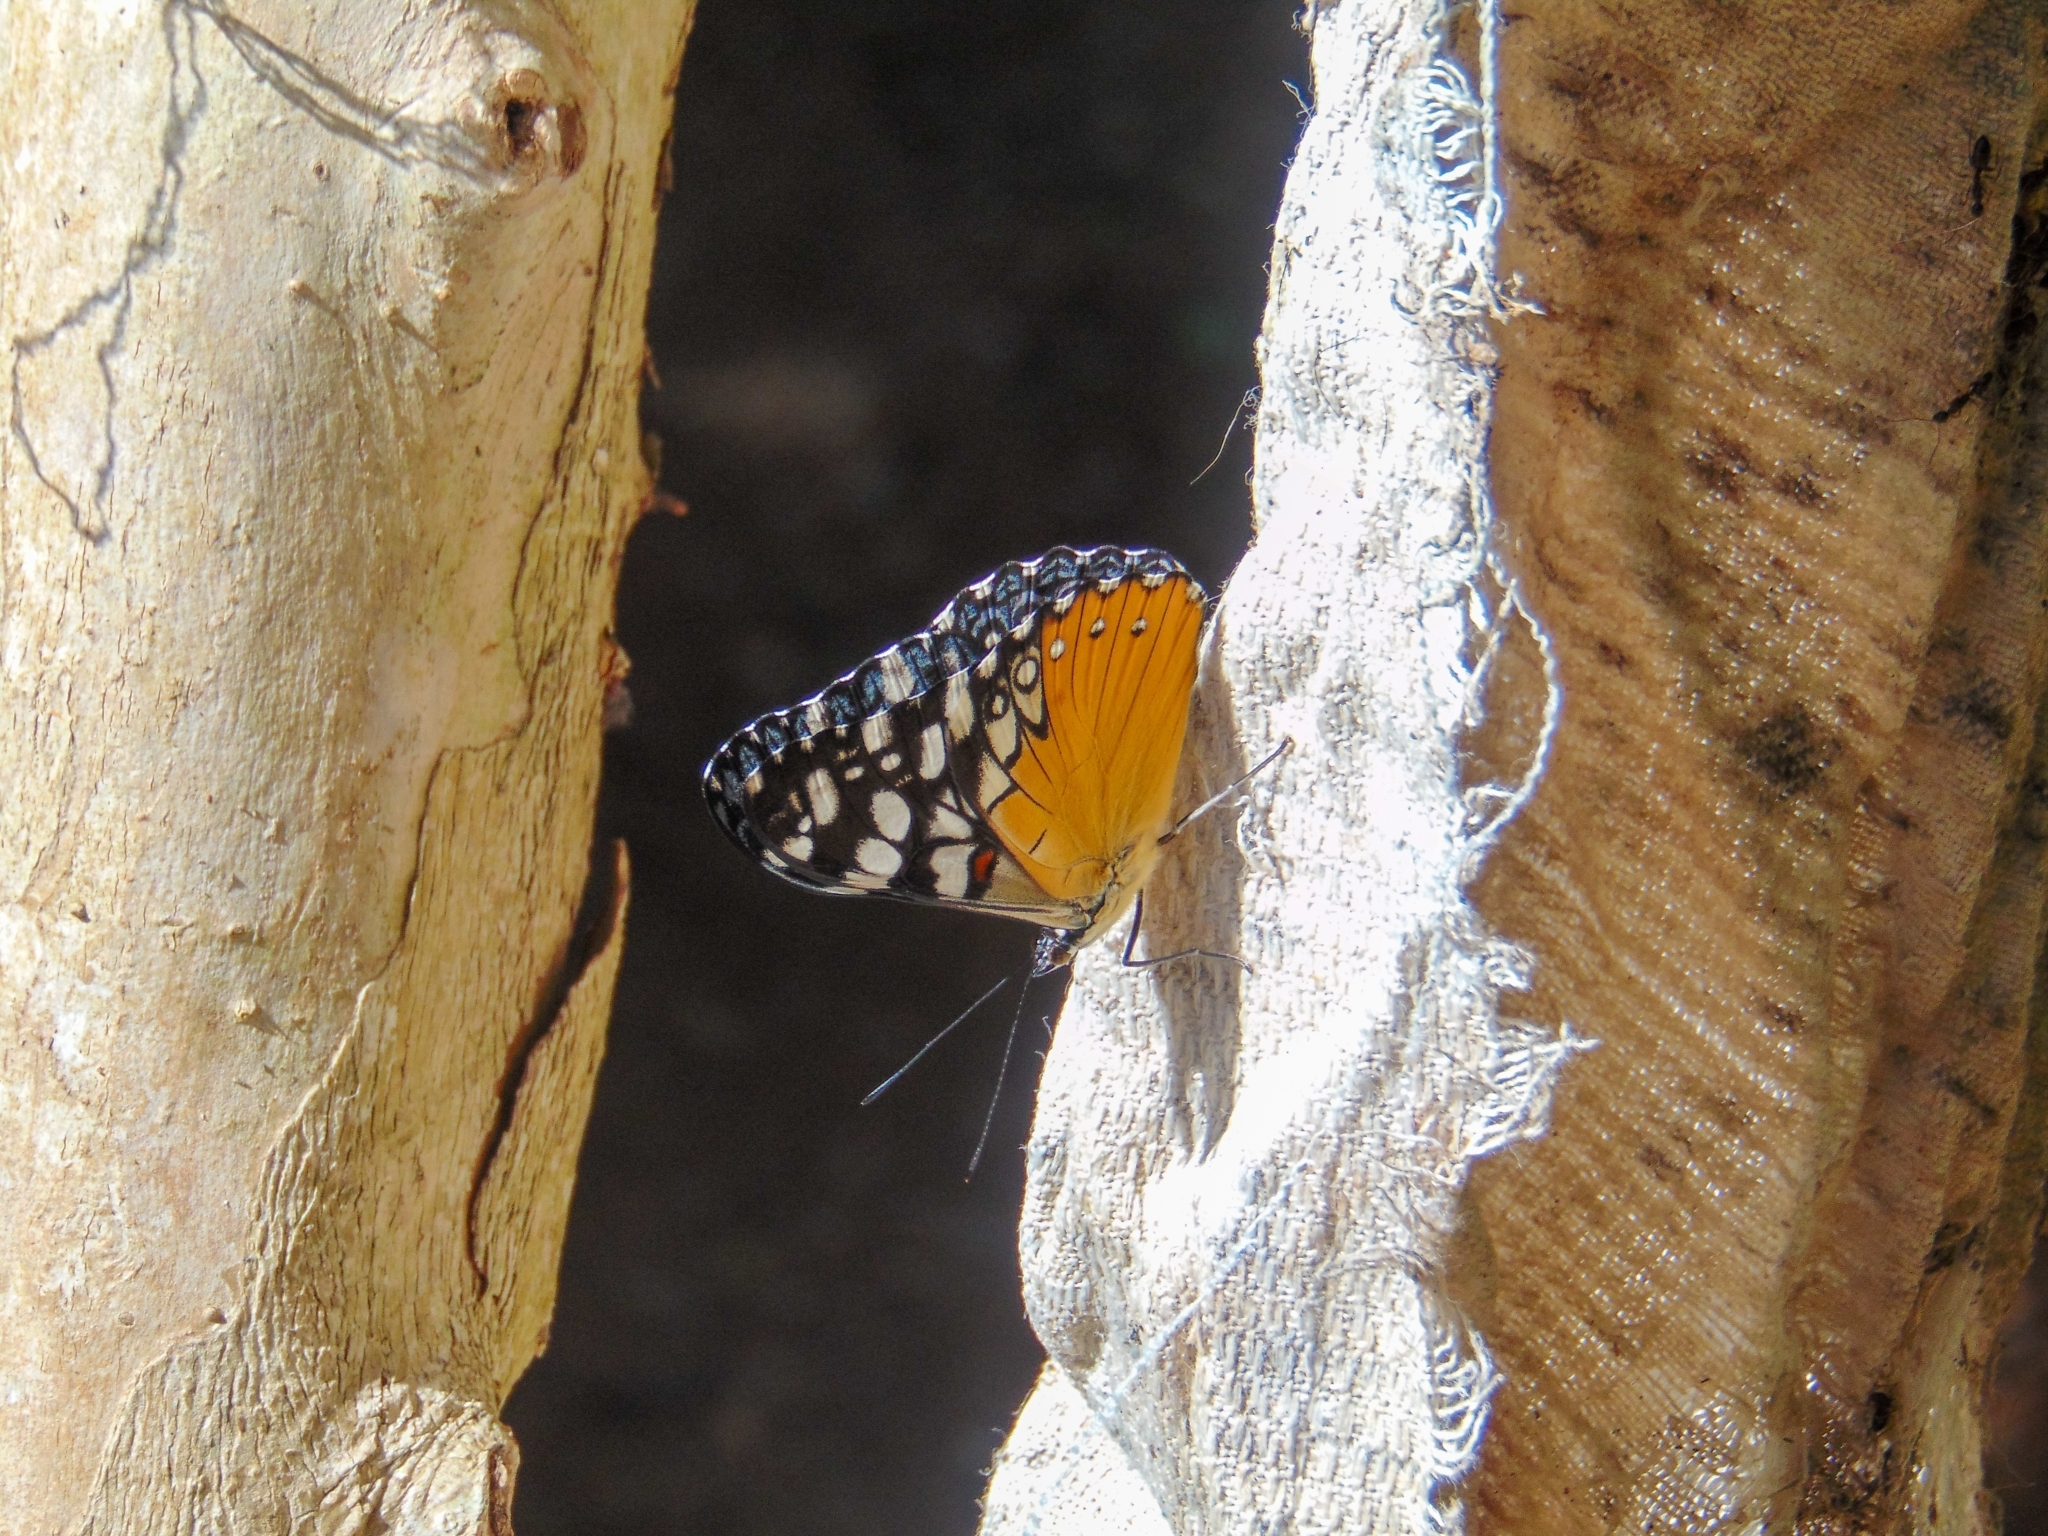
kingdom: Animalia
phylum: Arthropoda
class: Insecta
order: Lepidoptera
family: Nymphalidae
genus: Hamadryas
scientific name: Hamadryas fornax
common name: Orange cracker
